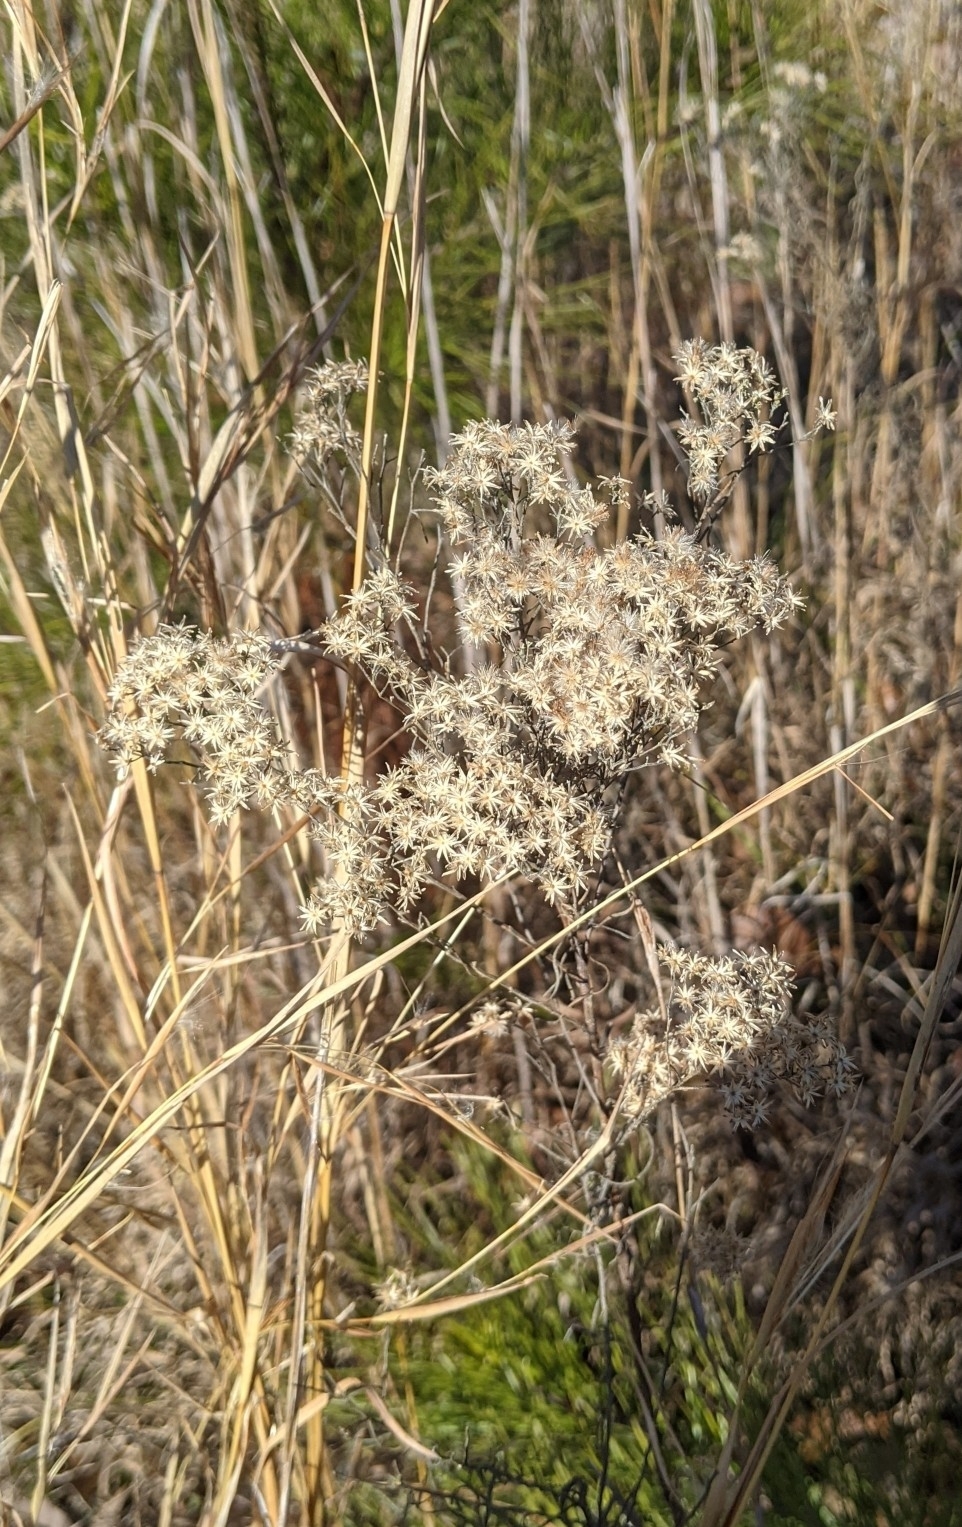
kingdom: Plantae
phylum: Tracheophyta
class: Magnoliopsida
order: Asterales
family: Asteraceae
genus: Pseudognaphalium
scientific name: Pseudognaphalium obtusifolium
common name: Eastern rabbit-tobacco
